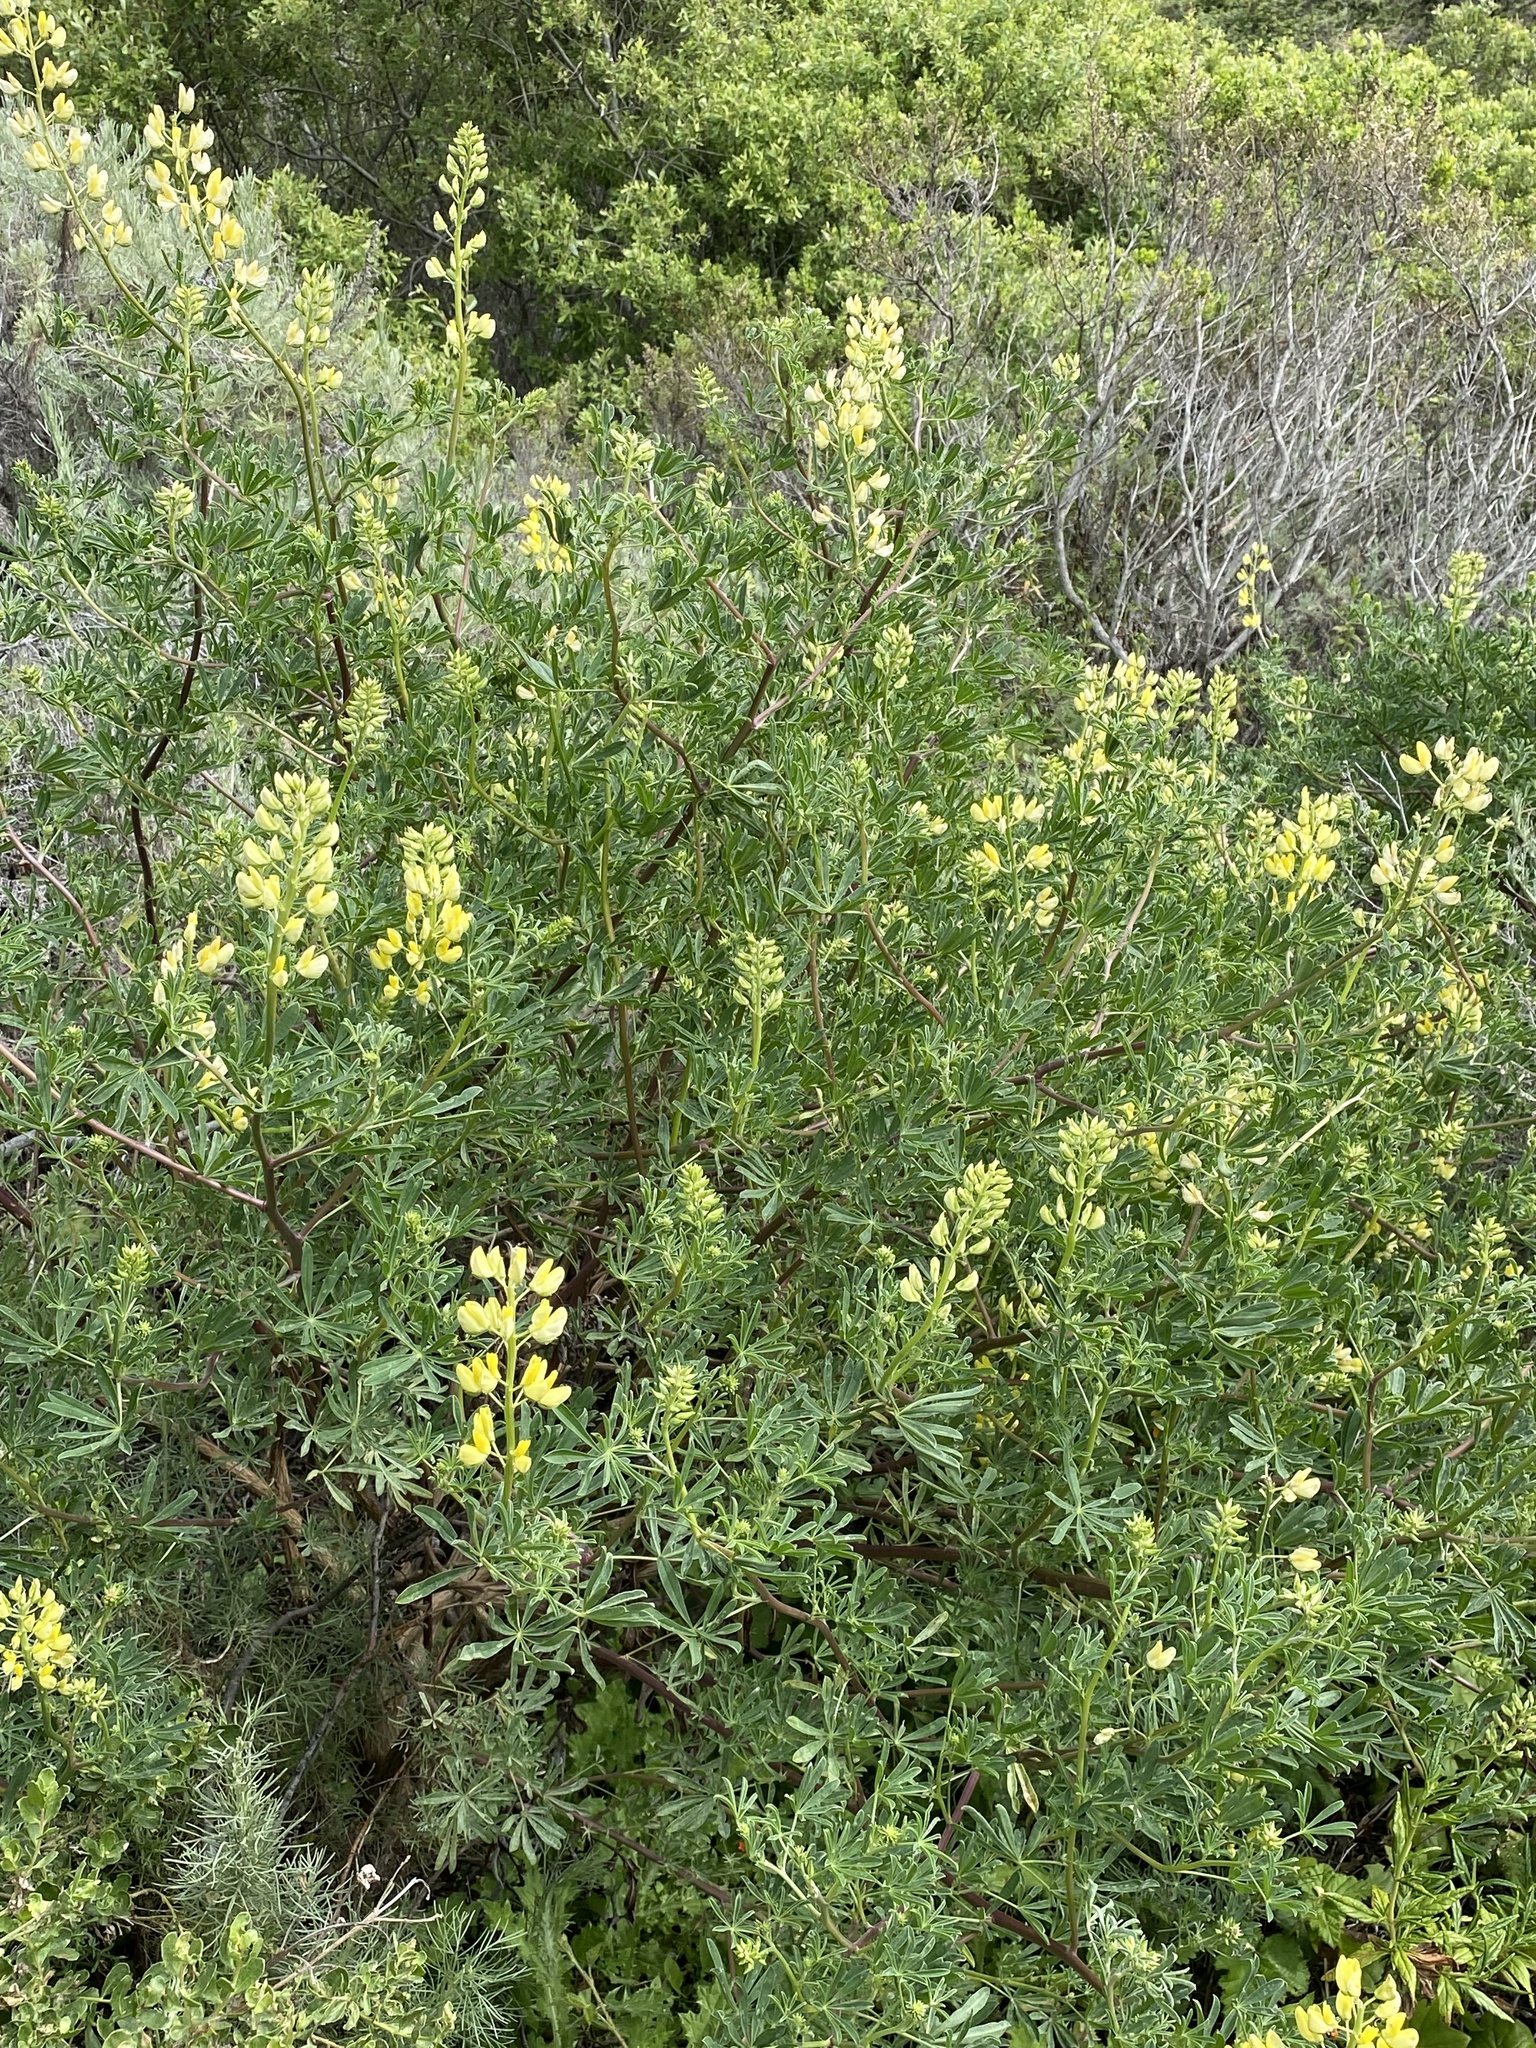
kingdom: Plantae
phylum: Tracheophyta
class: Magnoliopsida
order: Fabales
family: Fabaceae
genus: Lupinus
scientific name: Lupinus arboreus
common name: Yellow bush lupine
